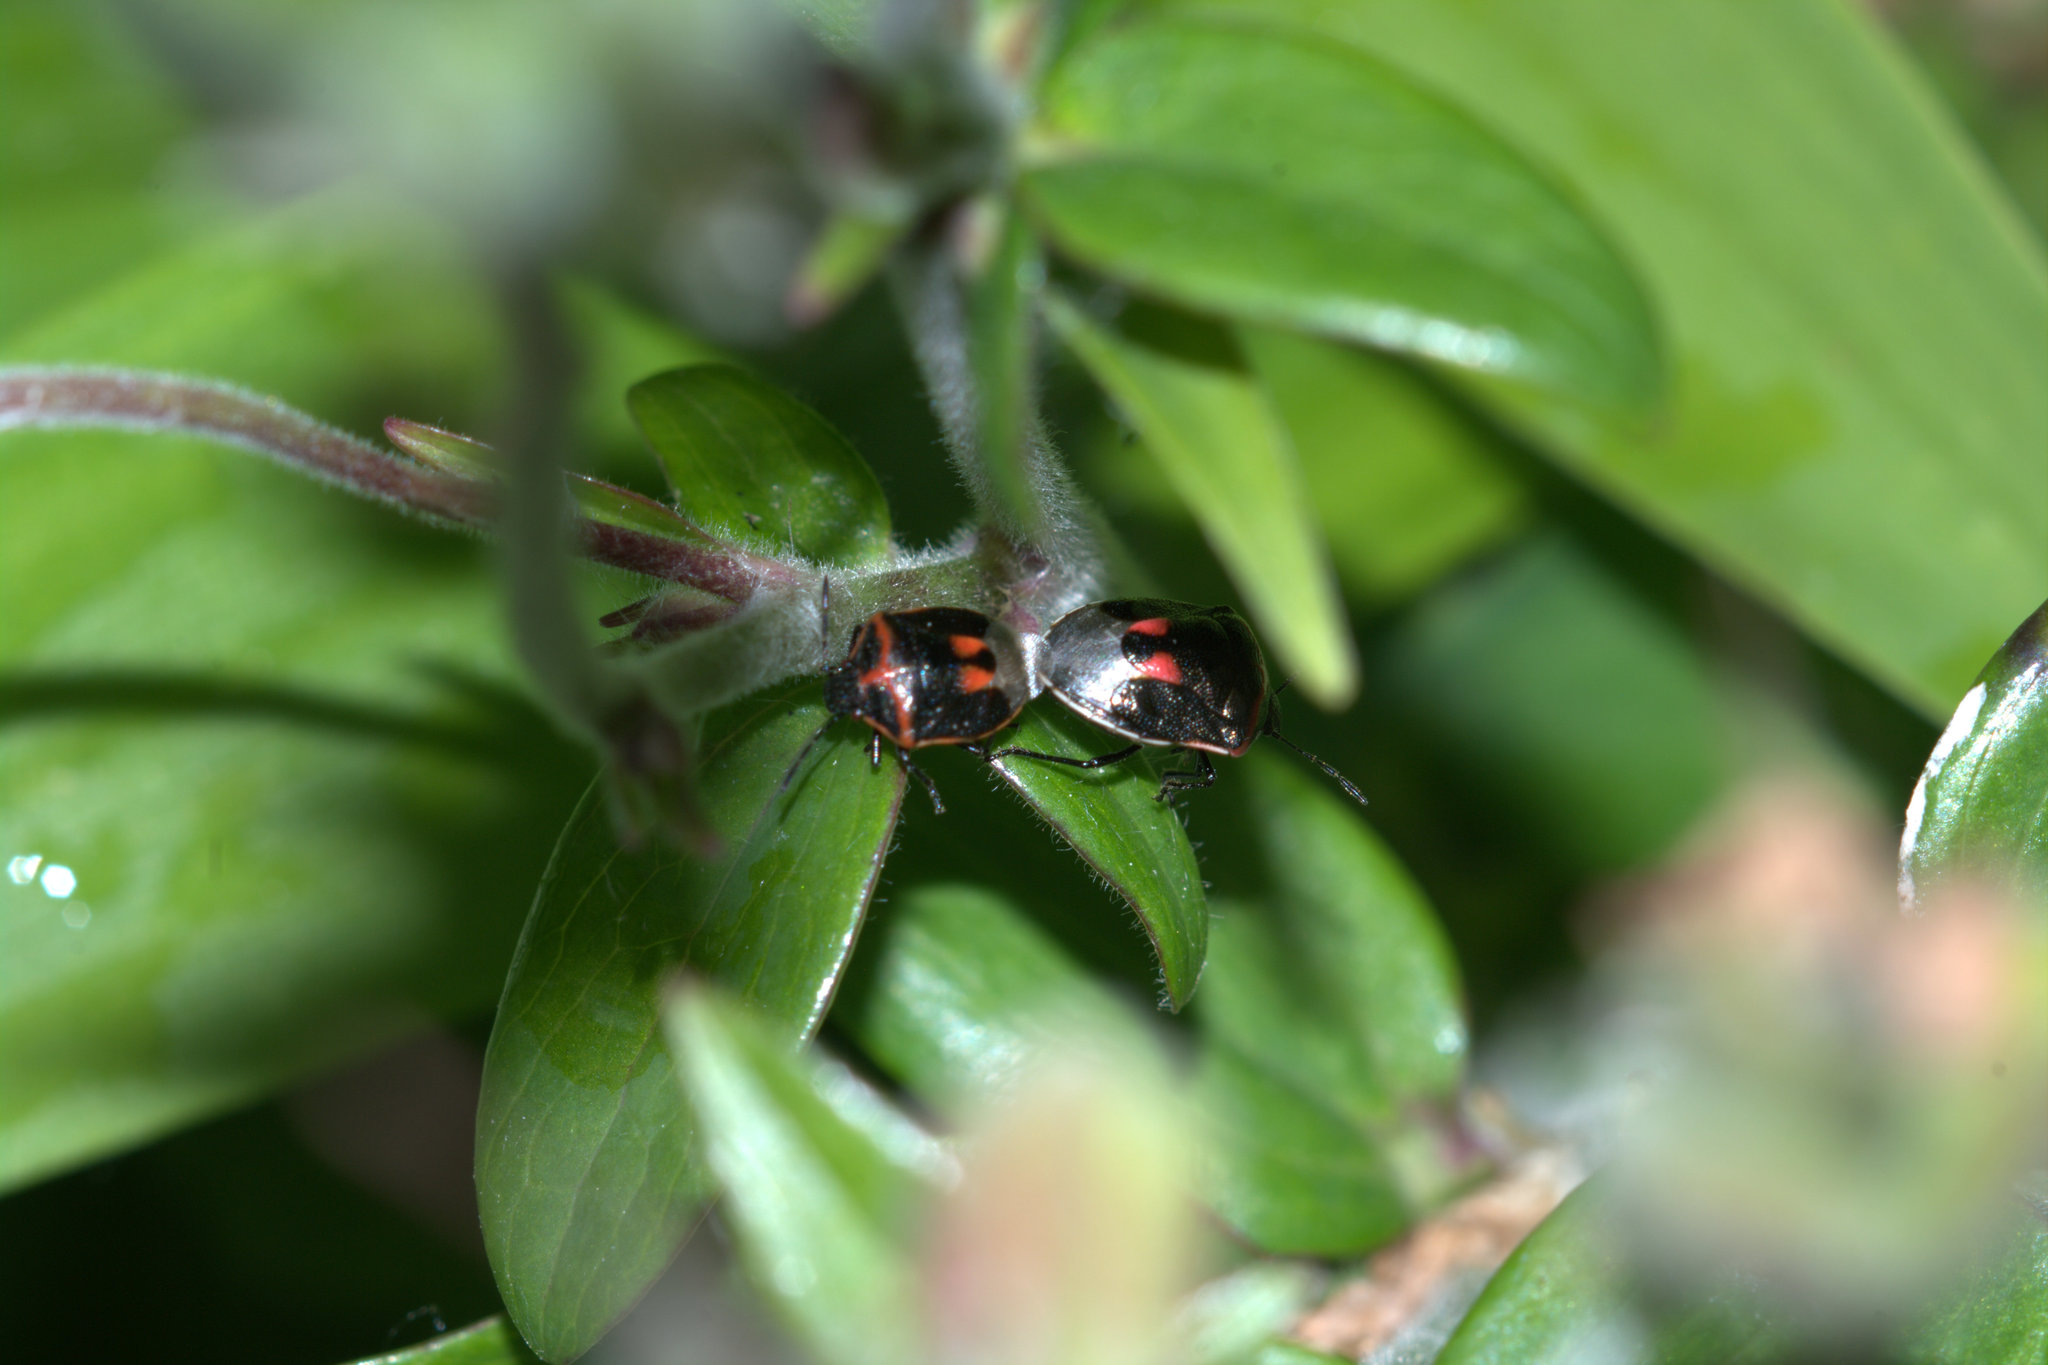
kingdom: Animalia
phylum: Arthropoda
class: Insecta
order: Hemiptera
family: Pentatomidae
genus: Cosmopepla
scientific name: Cosmopepla lintneriana
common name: Twice-stabbed stink bug
